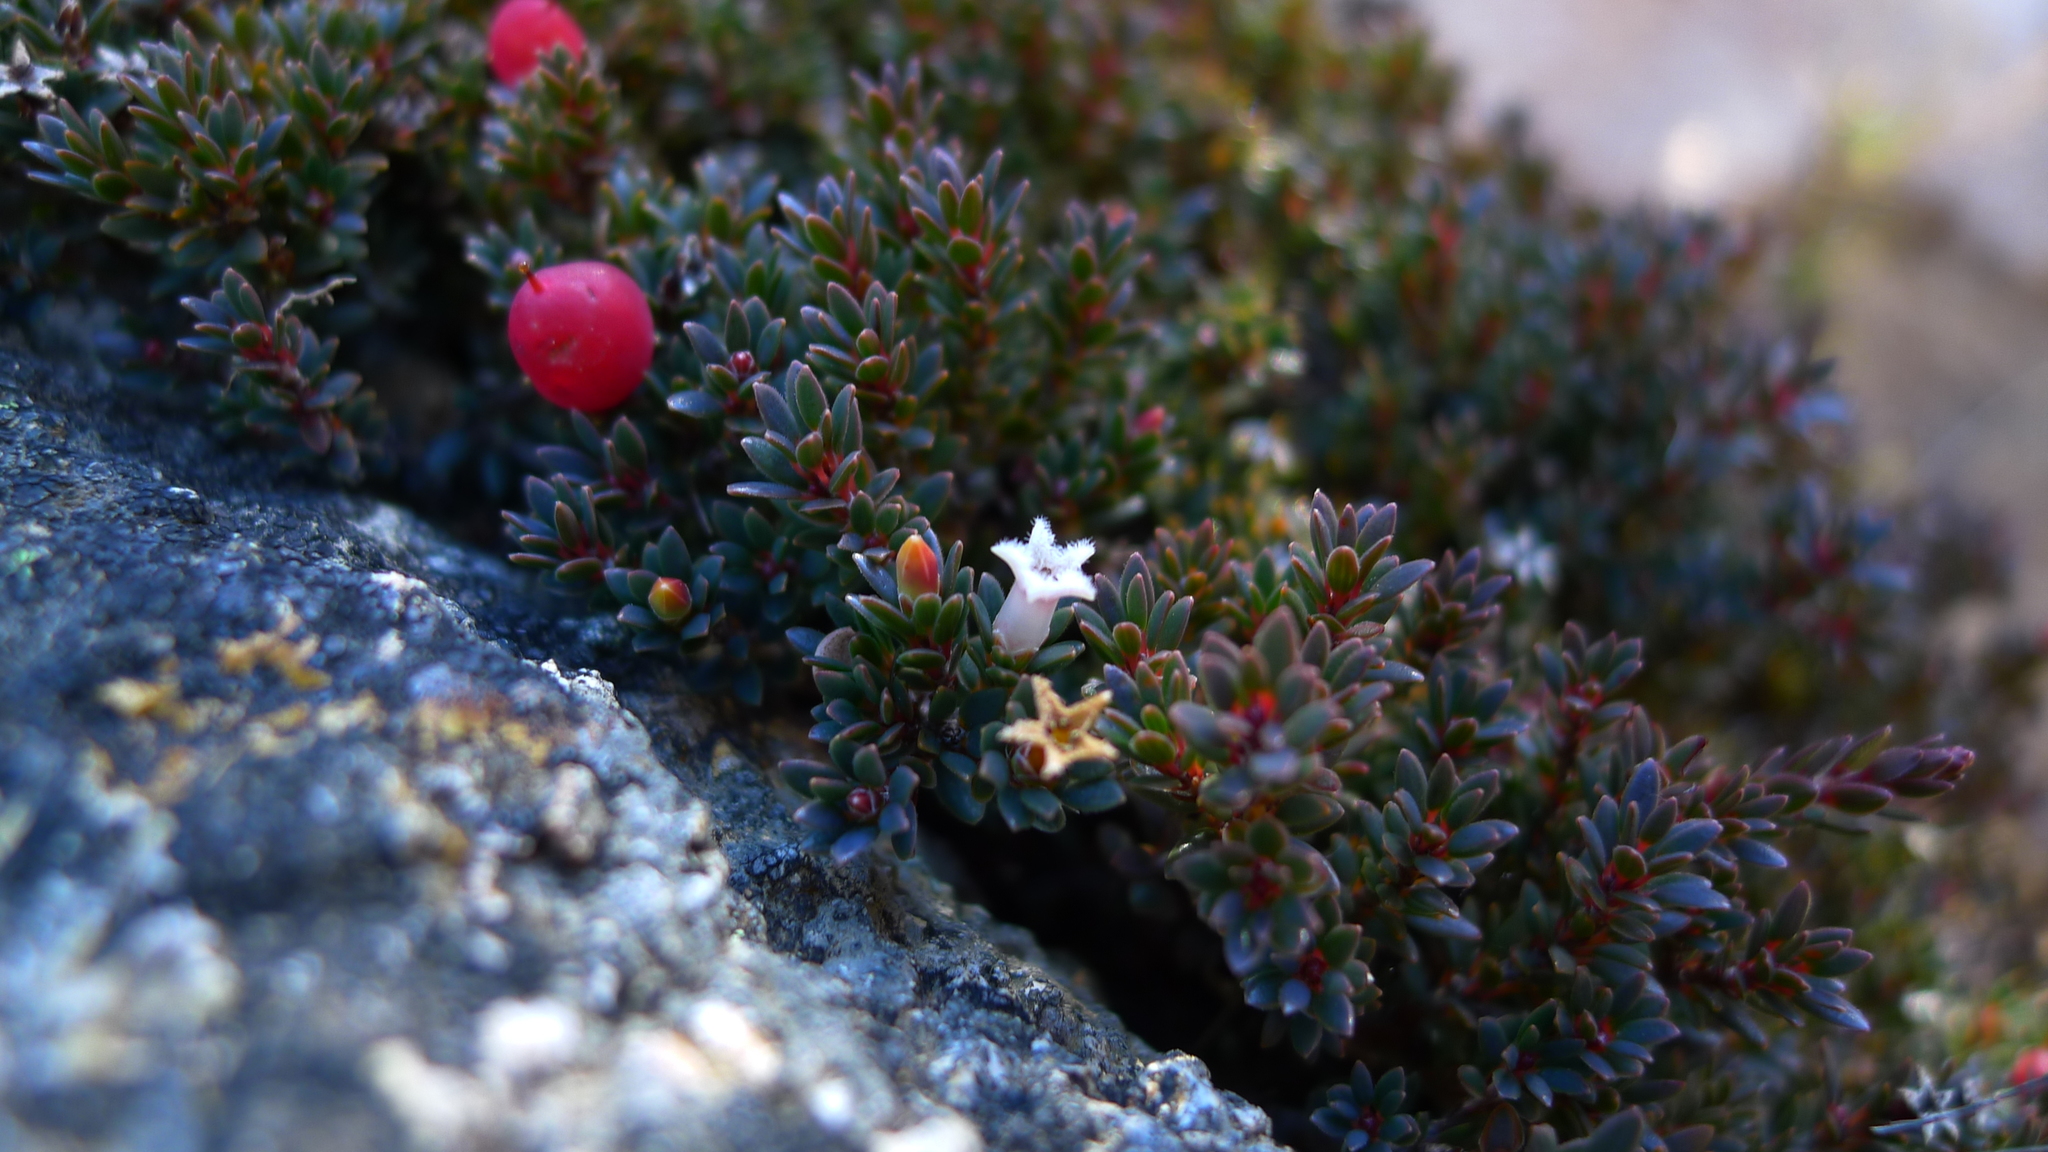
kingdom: Plantae
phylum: Tracheophyta
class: Magnoliopsida
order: Ericales
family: Ericaceae
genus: Pentachondra
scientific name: Pentachondra pumila
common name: Carpet-heath
